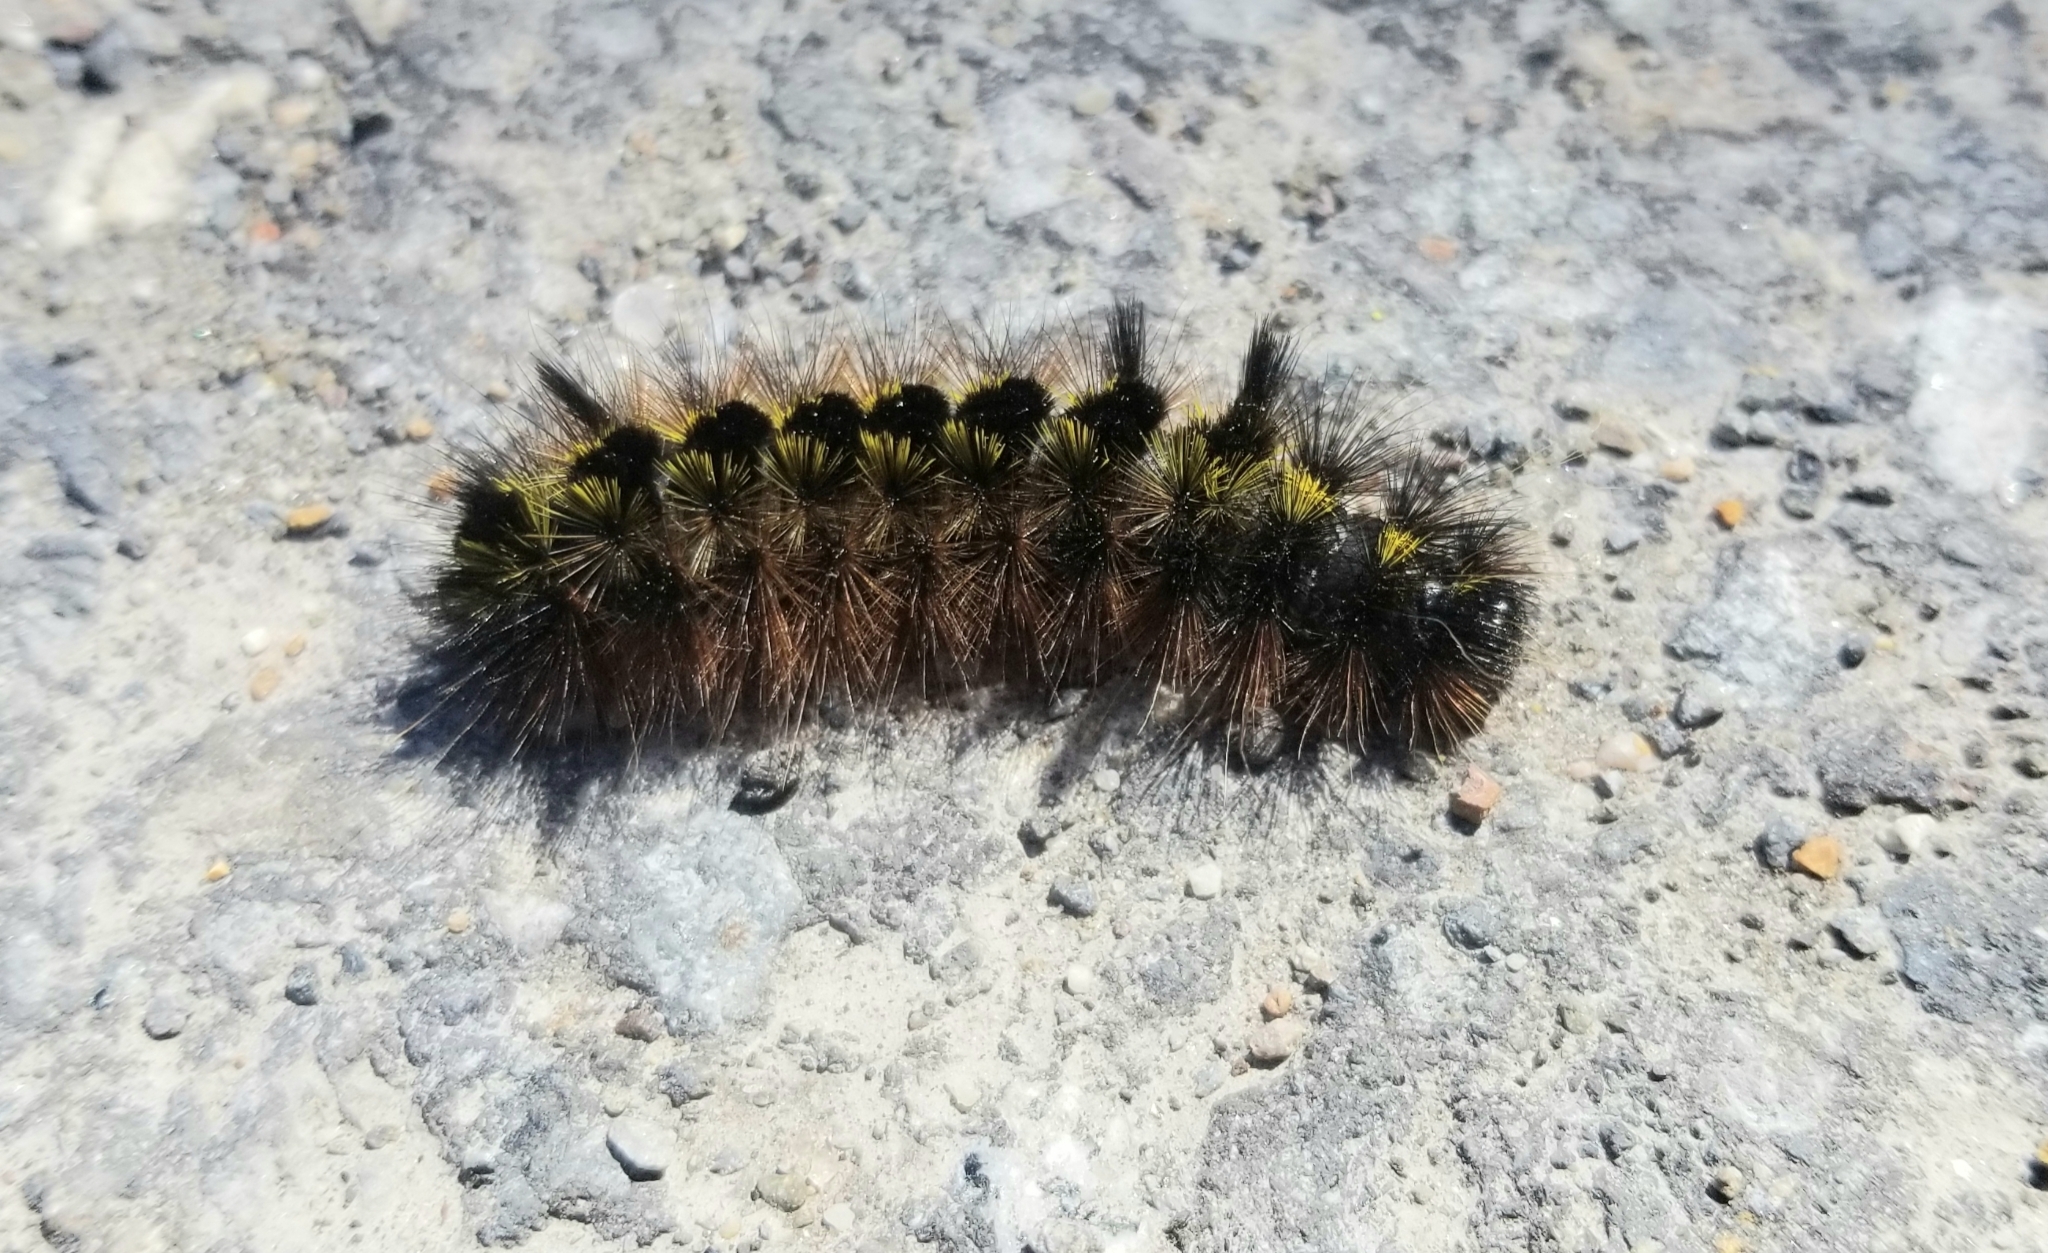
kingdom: Animalia
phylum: Arthropoda
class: Insecta
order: Lepidoptera
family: Erebidae
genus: Lophocampa
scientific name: Lophocampa argentata
